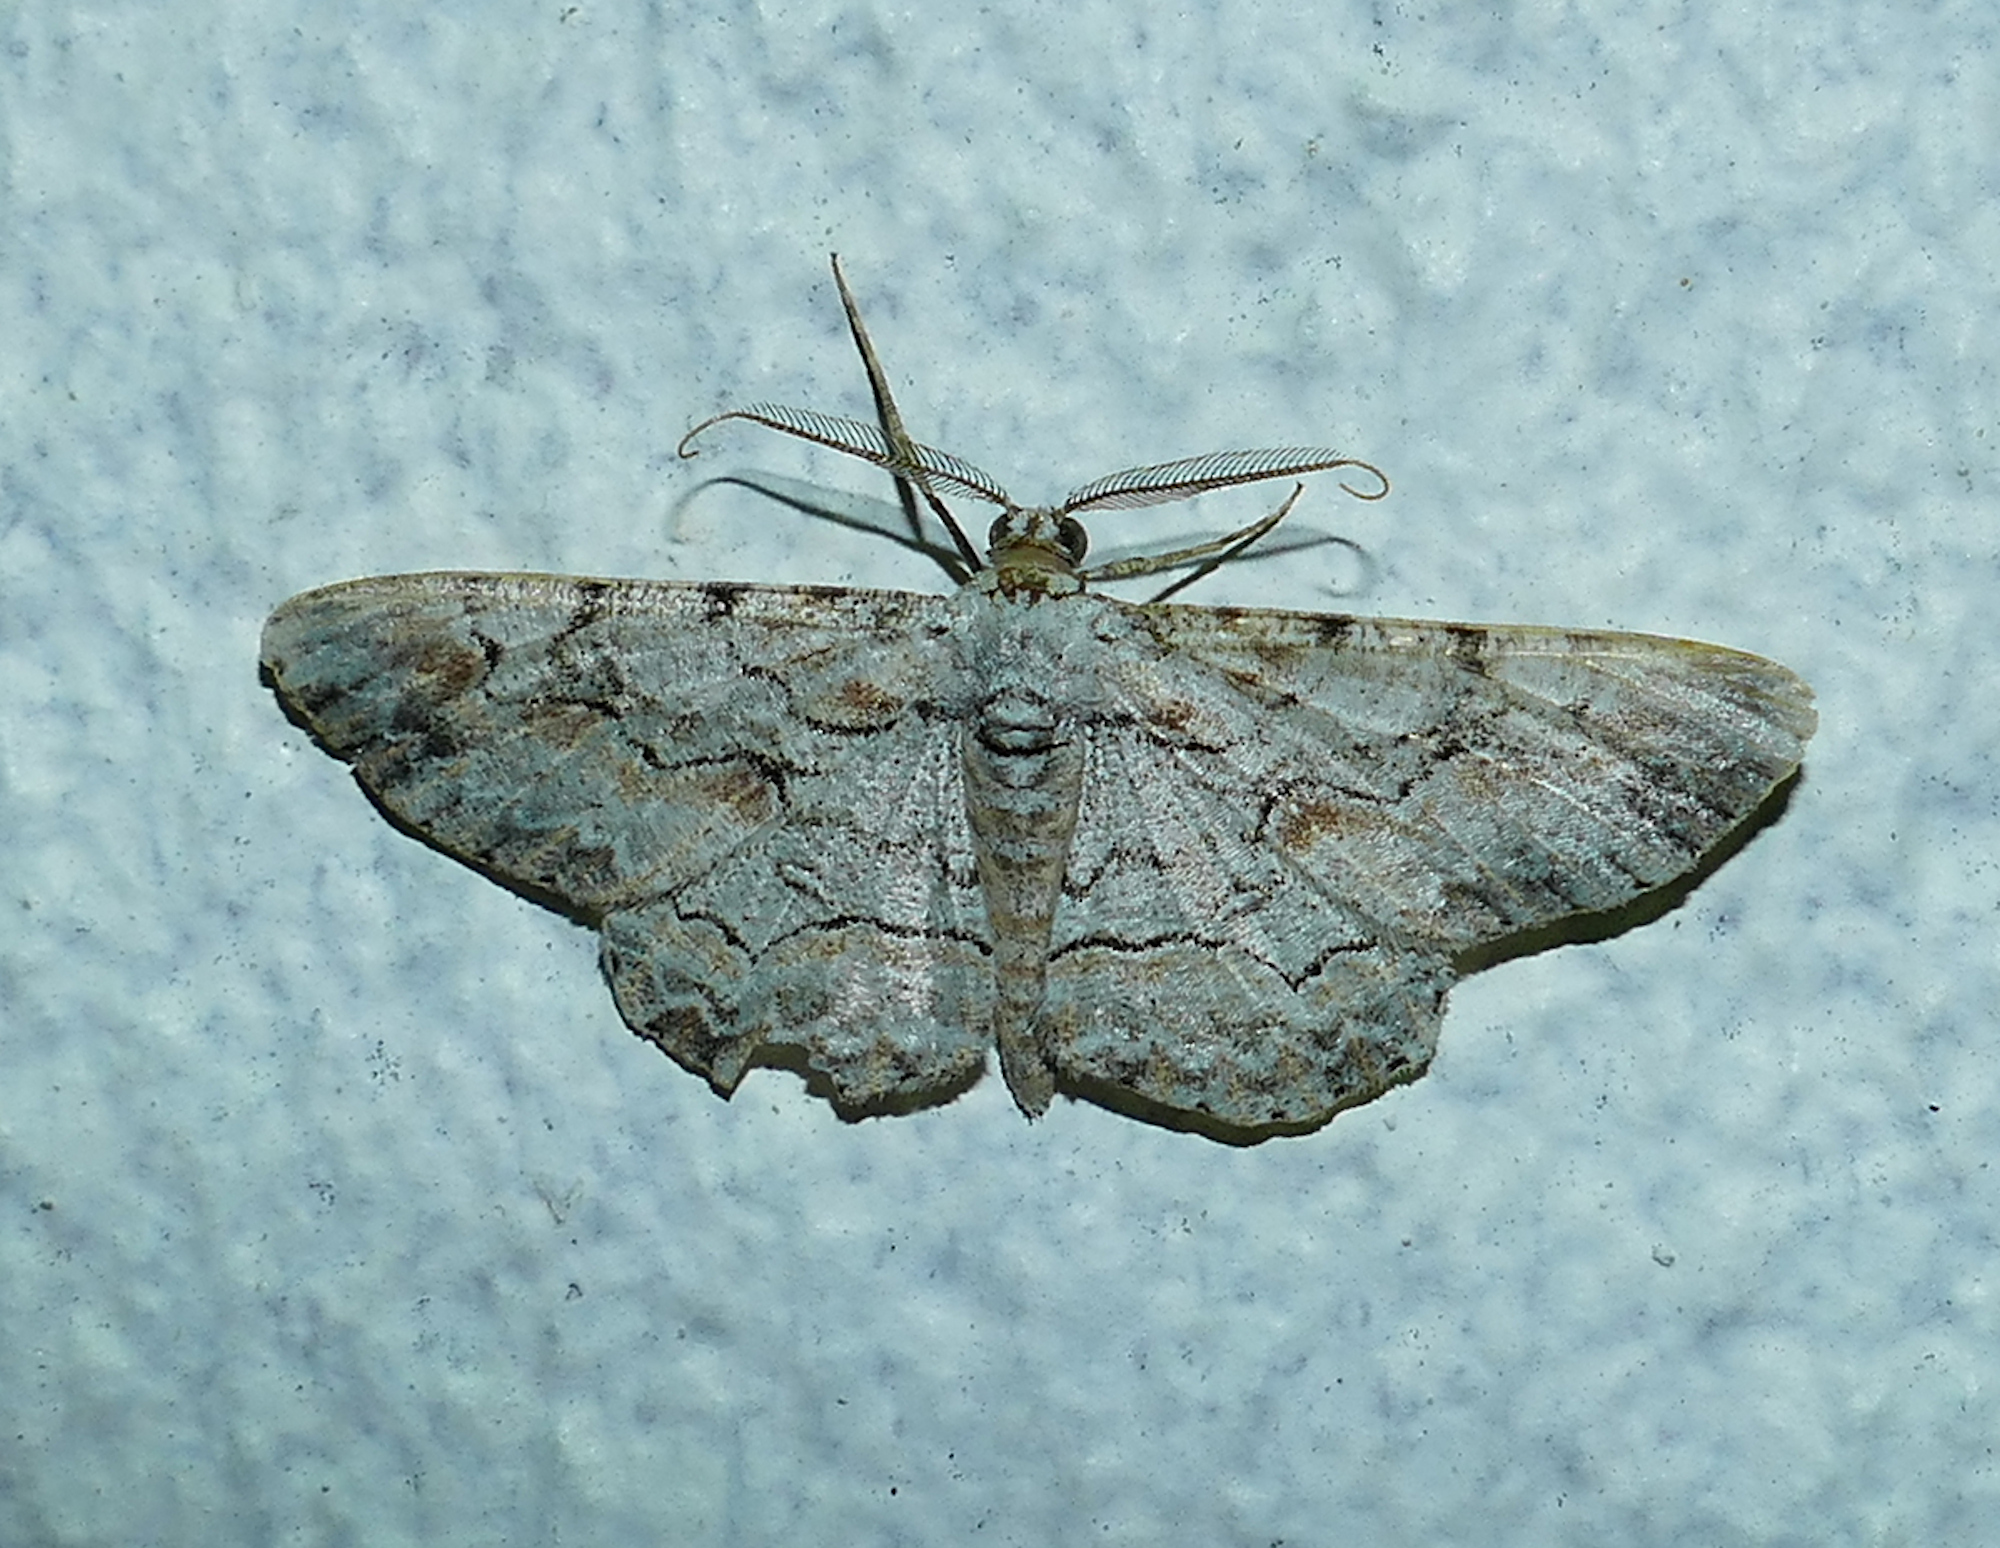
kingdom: Animalia
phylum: Arthropoda
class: Insecta
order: Lepidoptera
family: Geometridae
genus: Iridopsis
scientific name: Iridopsis defectaria
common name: Brown-shaded gray
